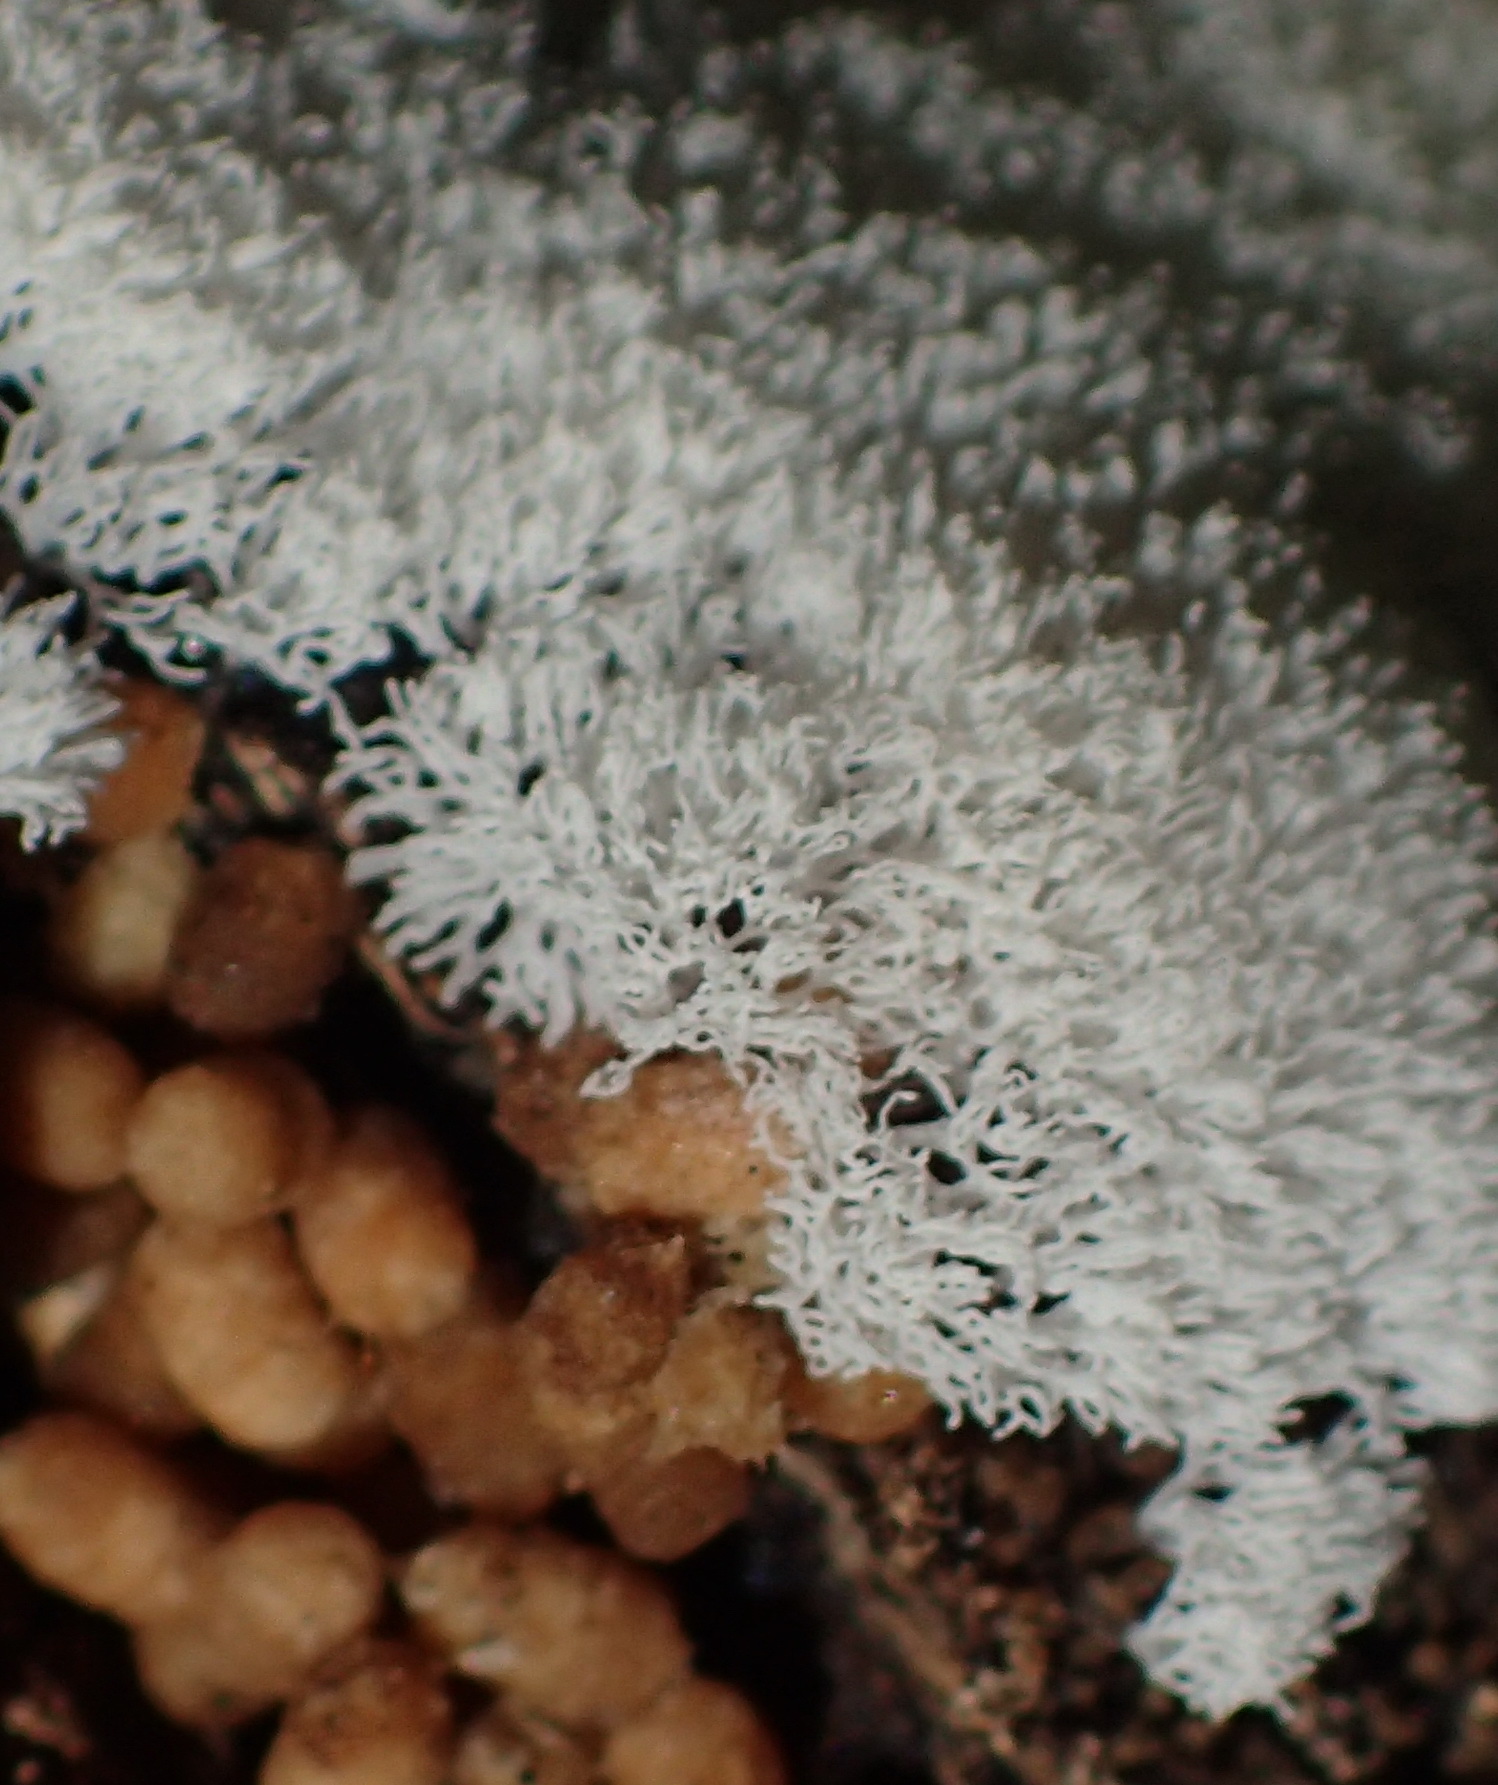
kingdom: Protozoa
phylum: Mycetozoa
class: Protosteliomycetes
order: Ceratiomyxales
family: Ceratiomyxaceae
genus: Ceratiomyxa
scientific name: Ceratiomyxa fruticulosa
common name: Honeycomb coral slime mold
